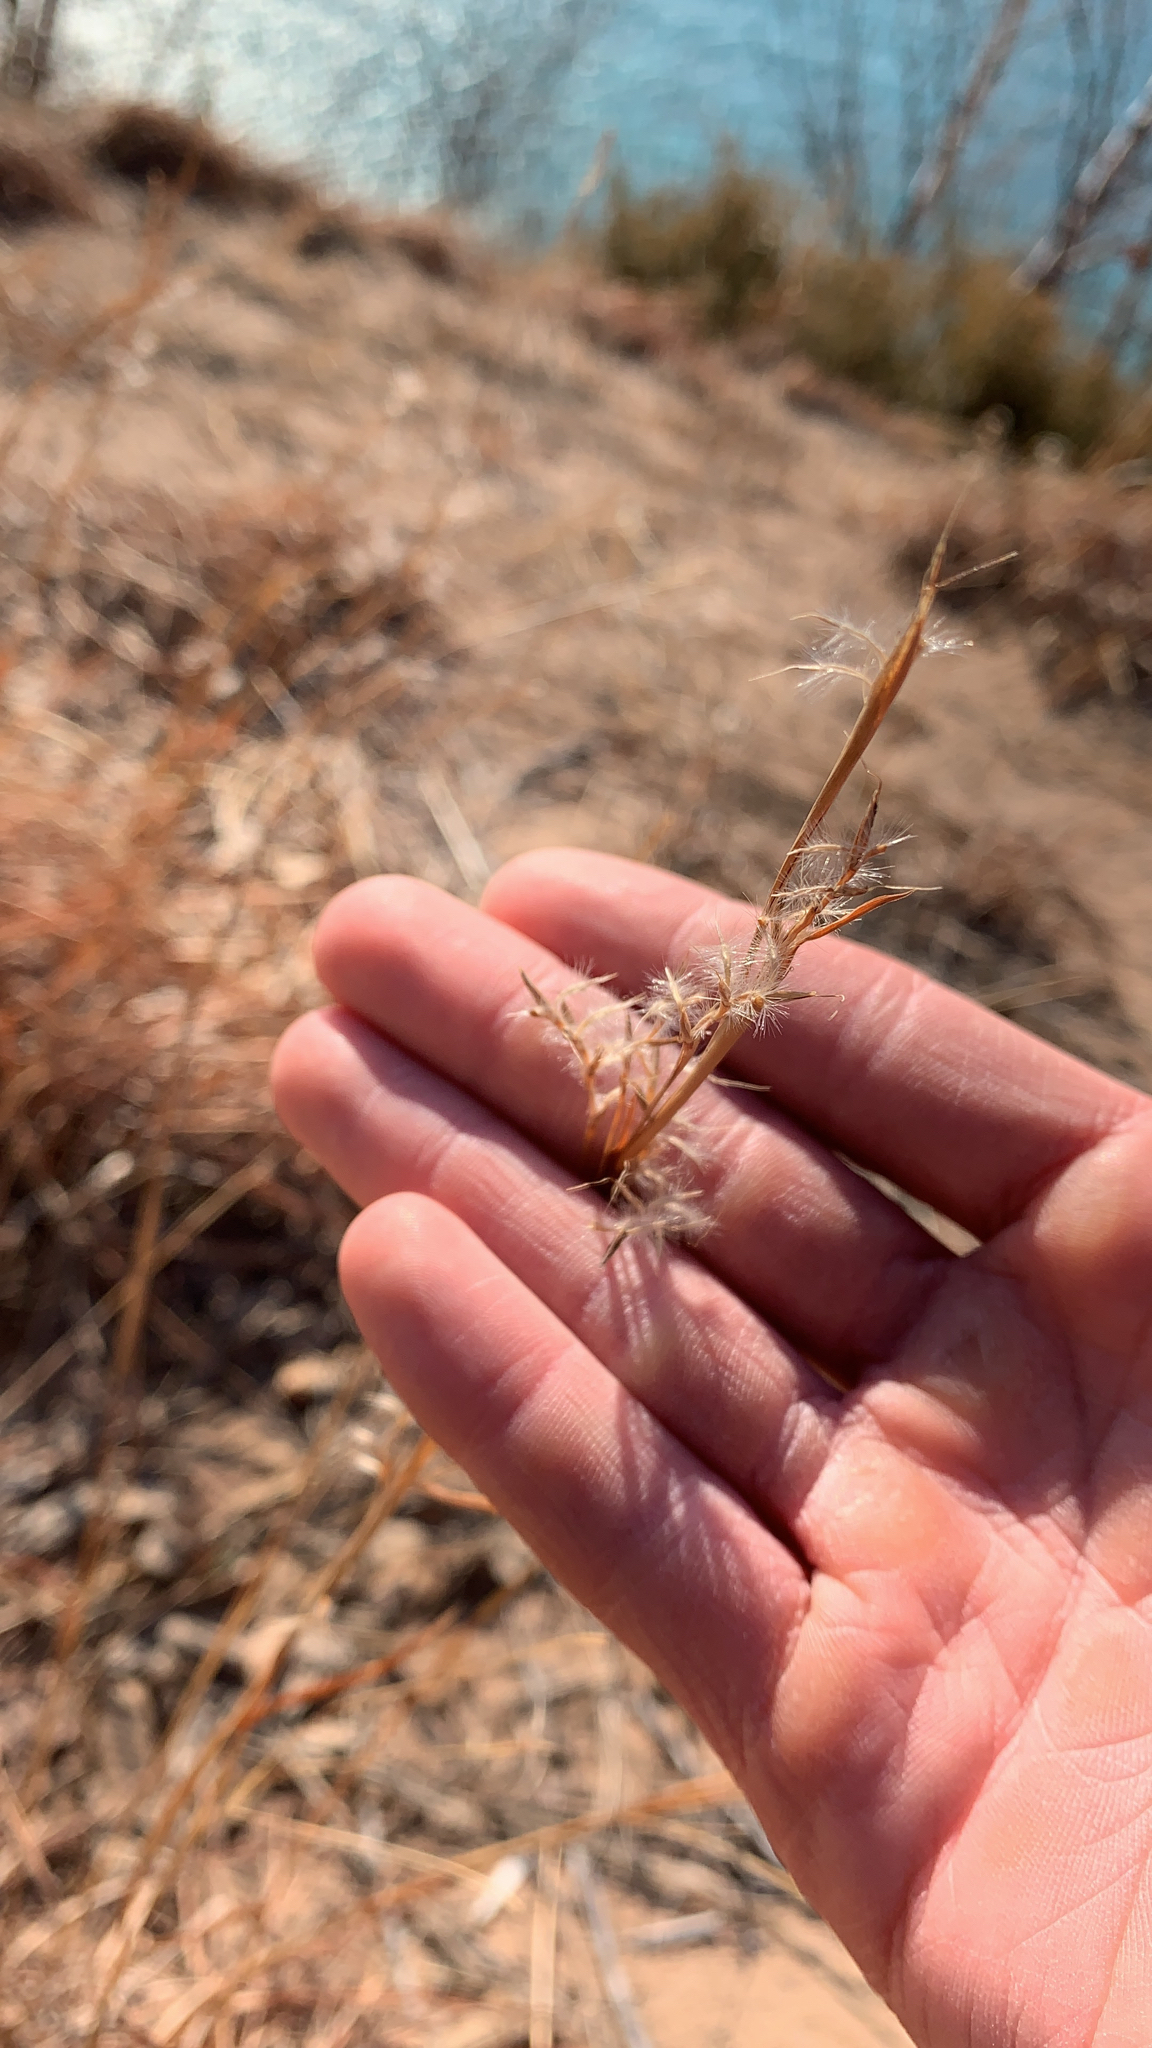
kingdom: Plantae
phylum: Tracheophyta
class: Liliopsida
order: Poales
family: Poaceae
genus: Schizachyrium
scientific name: Schizachyrium scoparium
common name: Little bluestem
